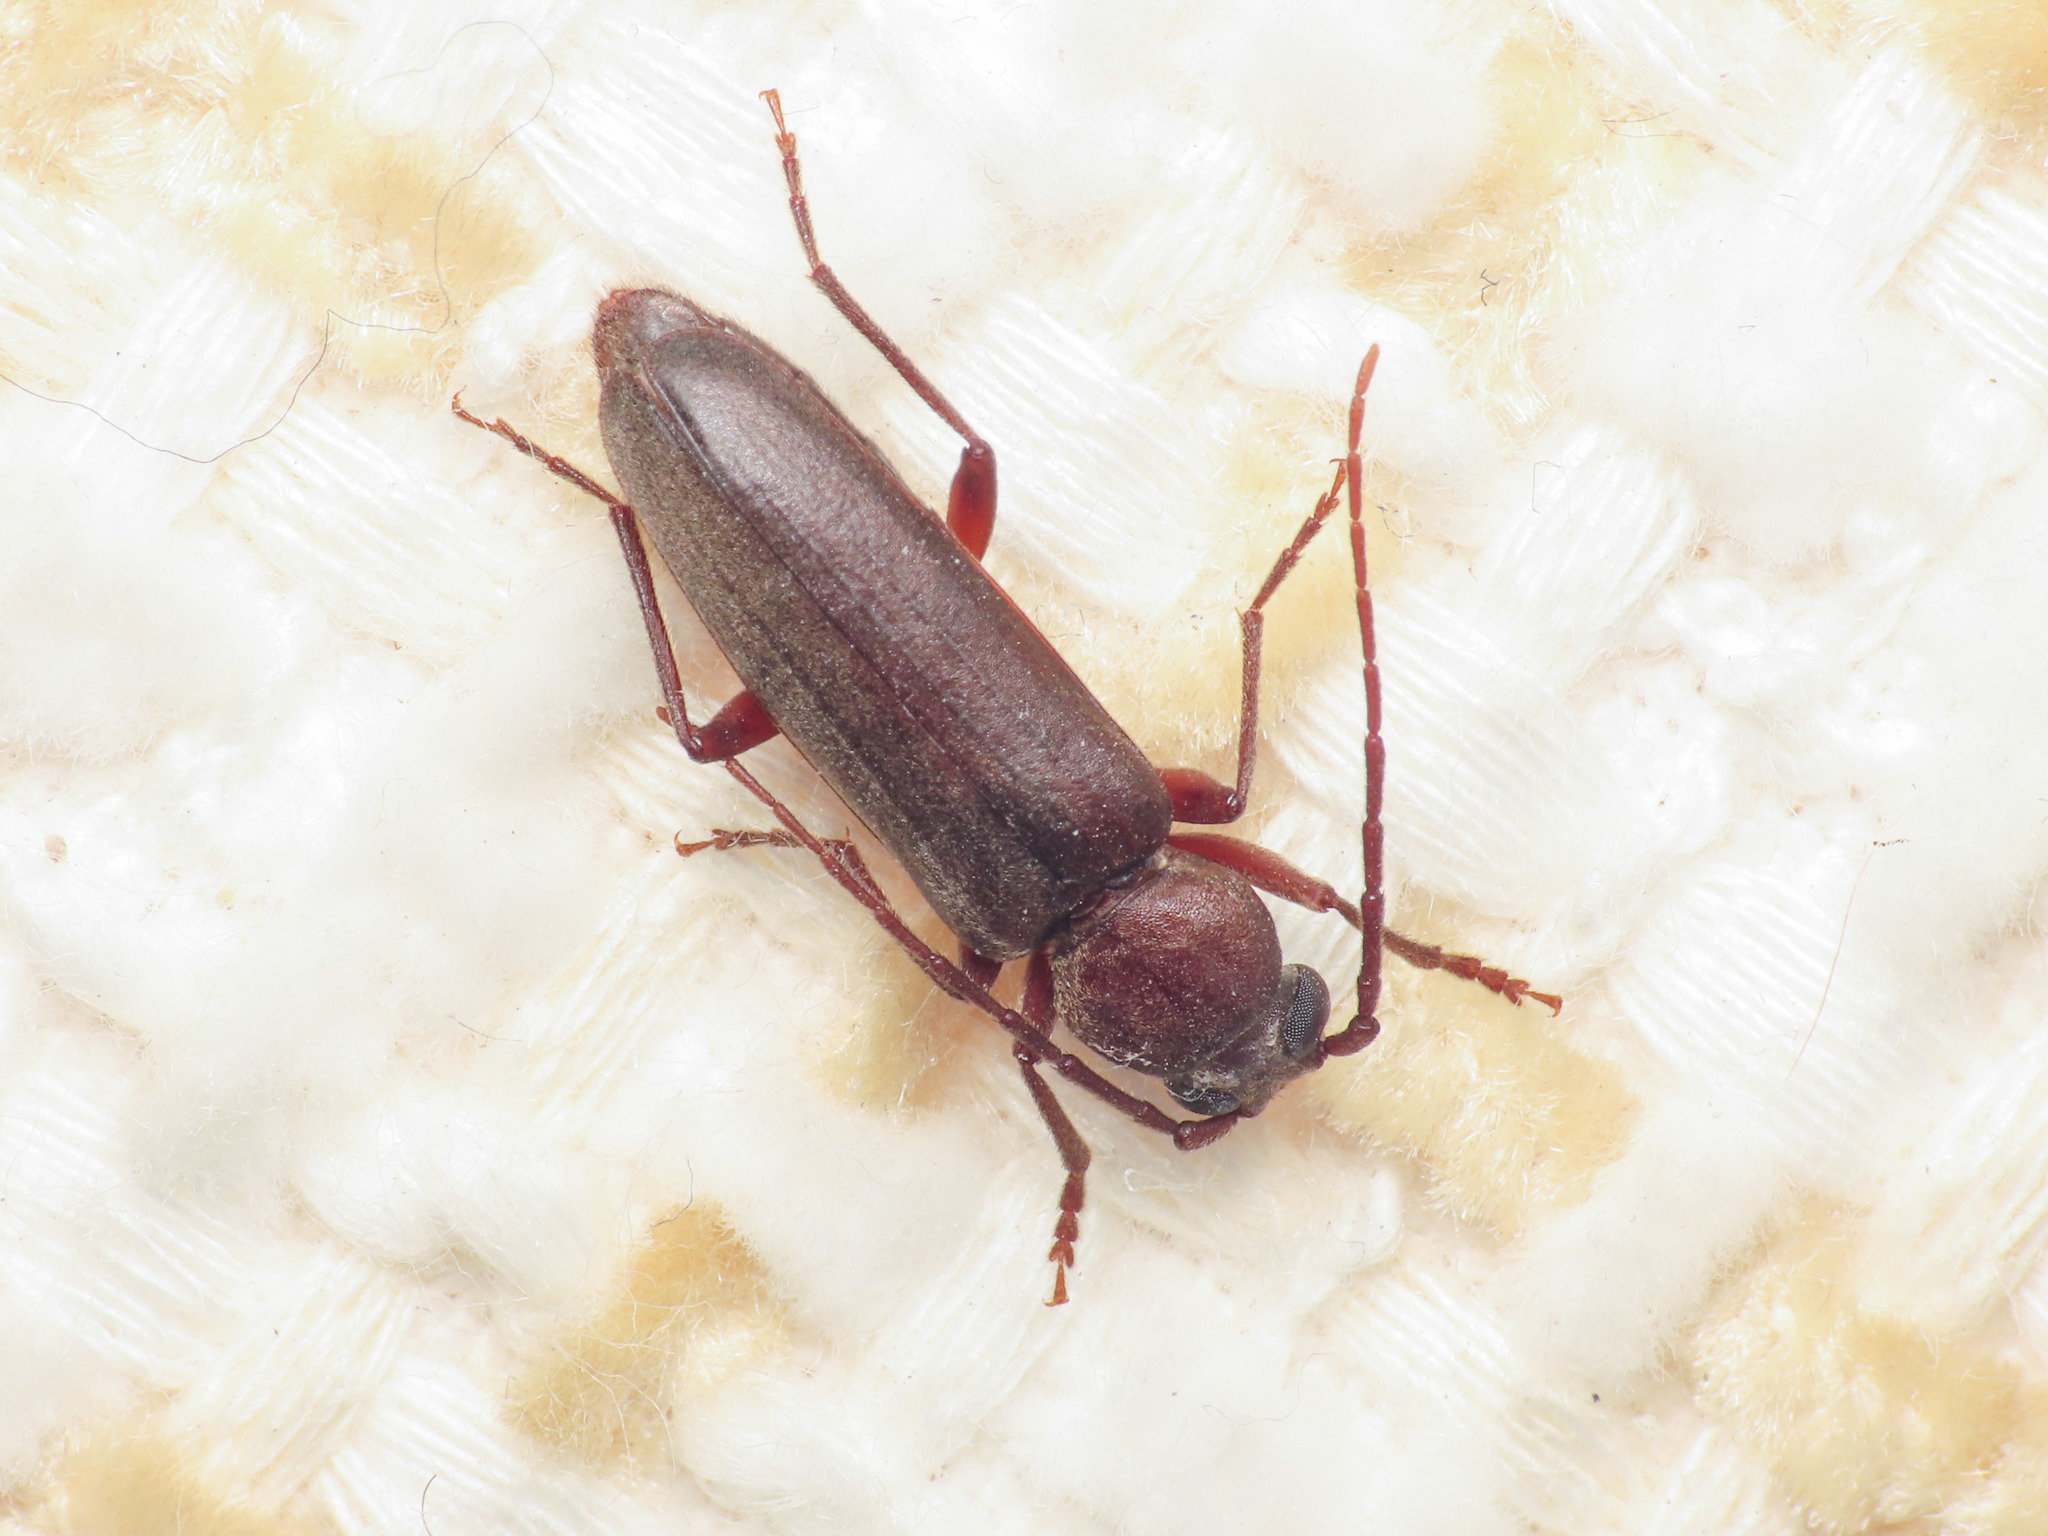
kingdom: Animalia
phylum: Arthropoda
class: Insecta
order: Coleoptera
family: Cerambycidae
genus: Arhopalus
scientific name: Arhopalus ferus
